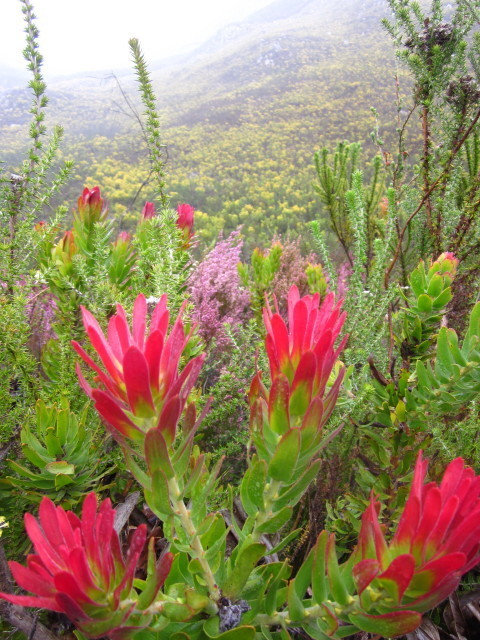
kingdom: Plantae
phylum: Tracheophyta
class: Magnoliopsida
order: Proteales
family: Proteaceae
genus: Mimetes
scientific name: Mimetes cucullatus
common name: Common pagoda
